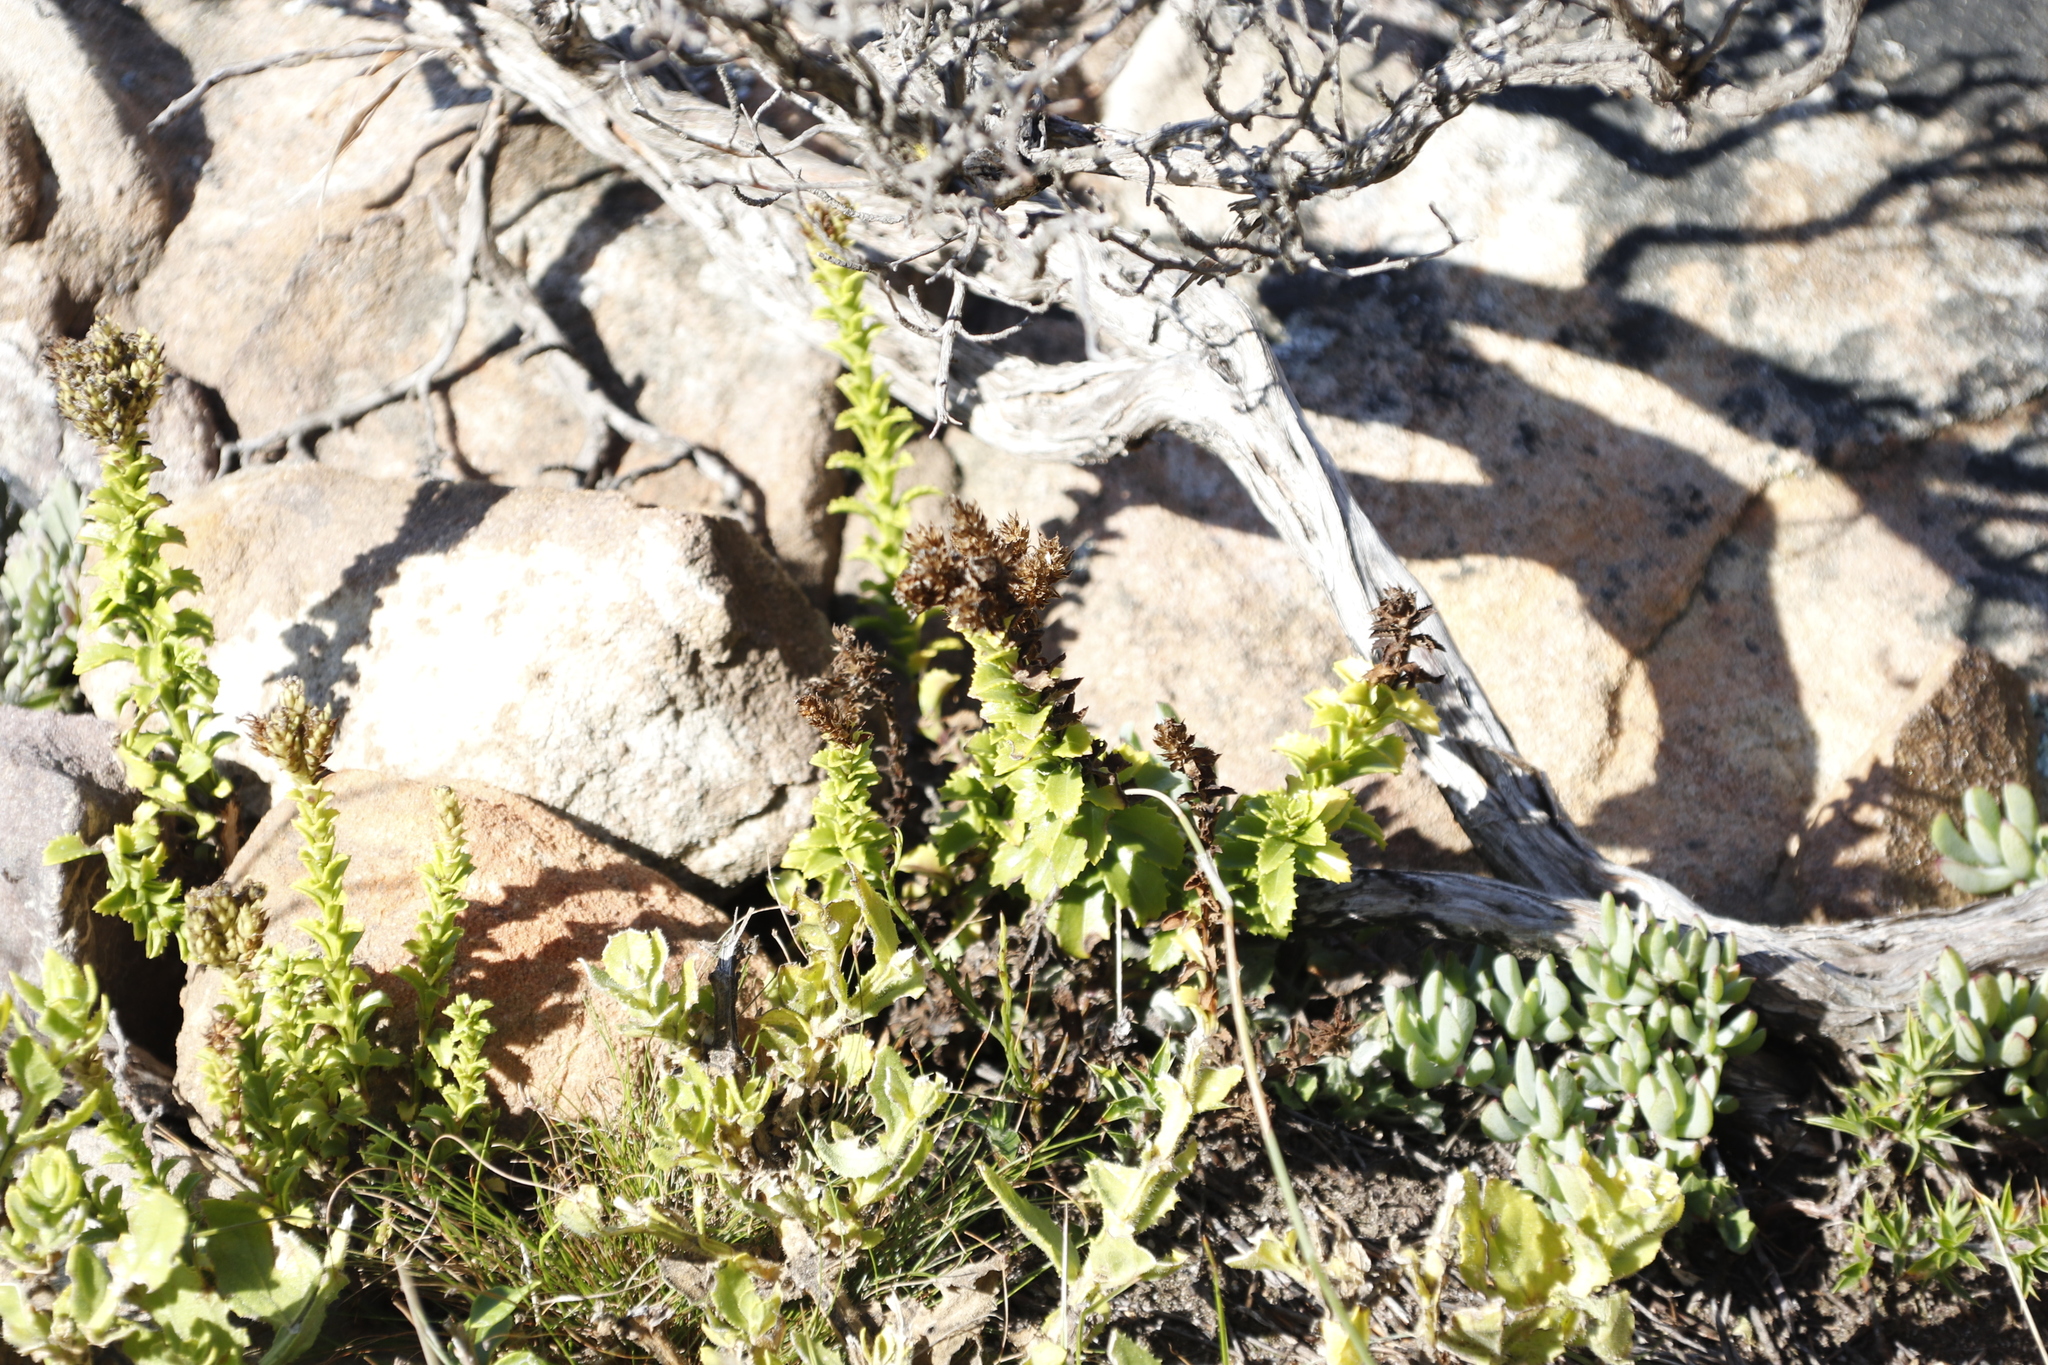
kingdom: Plantae
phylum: Tracheophyta
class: Magnoliopsida
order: Lamiales
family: Scrophulariaceae
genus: Pseudoselago
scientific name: Pseudoselago serrata
